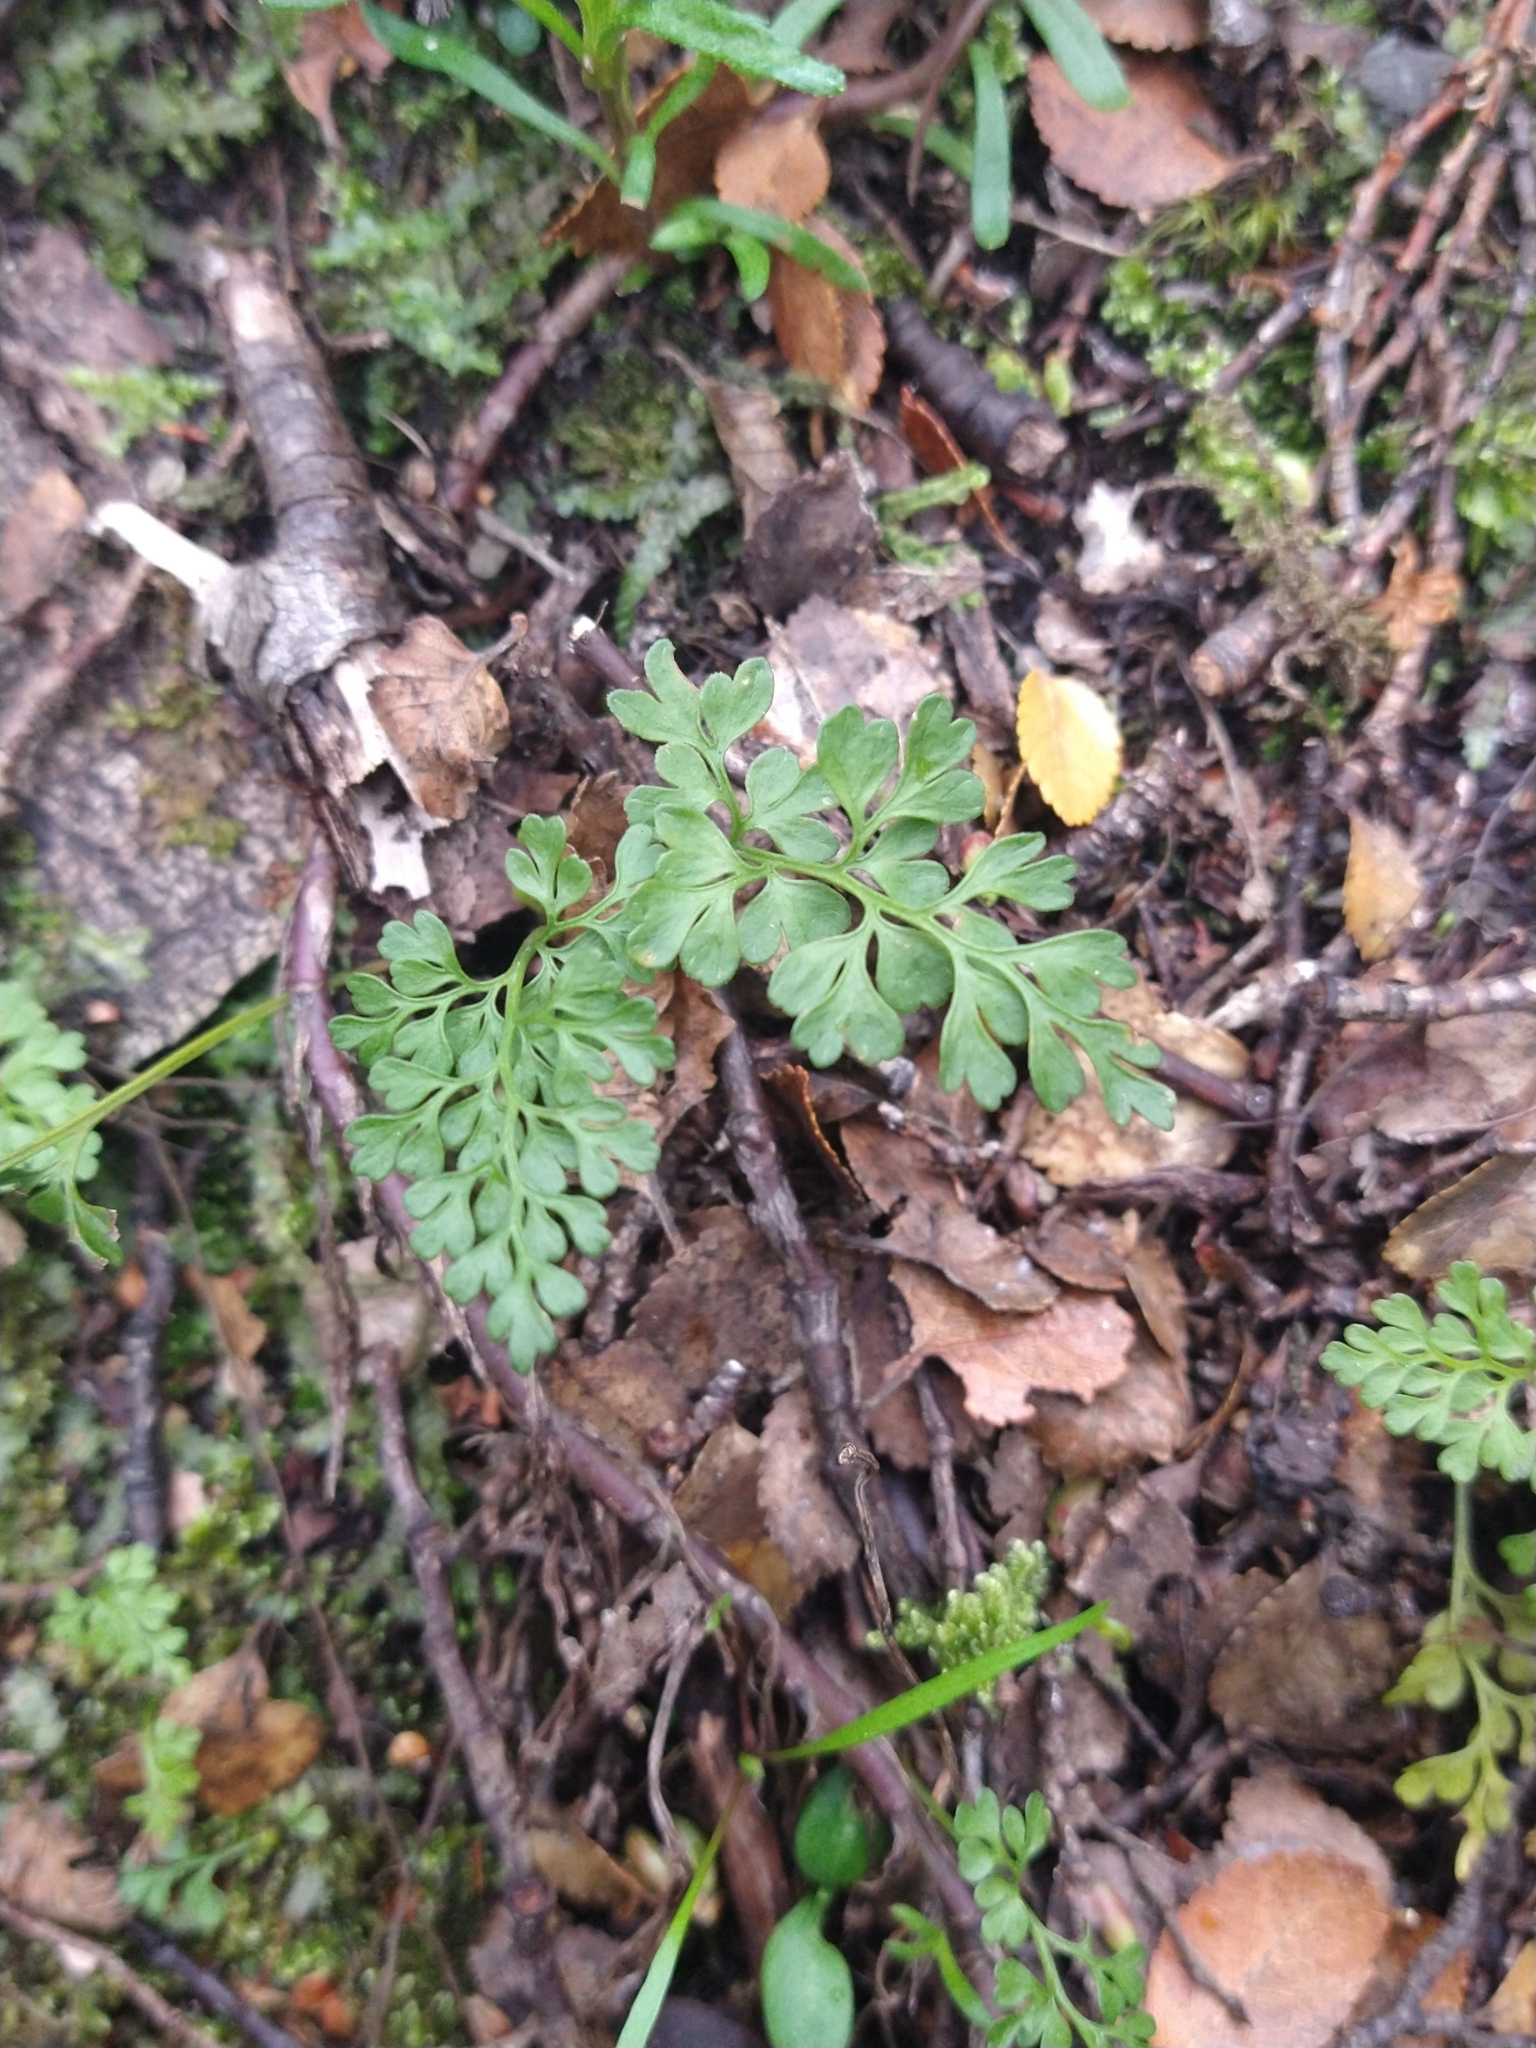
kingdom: Plantae
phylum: Tracheophyta
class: Polypodiopsida
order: Polypodiales
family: Aspleniaceae
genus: Asplenium
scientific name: Asplenium dareoides
